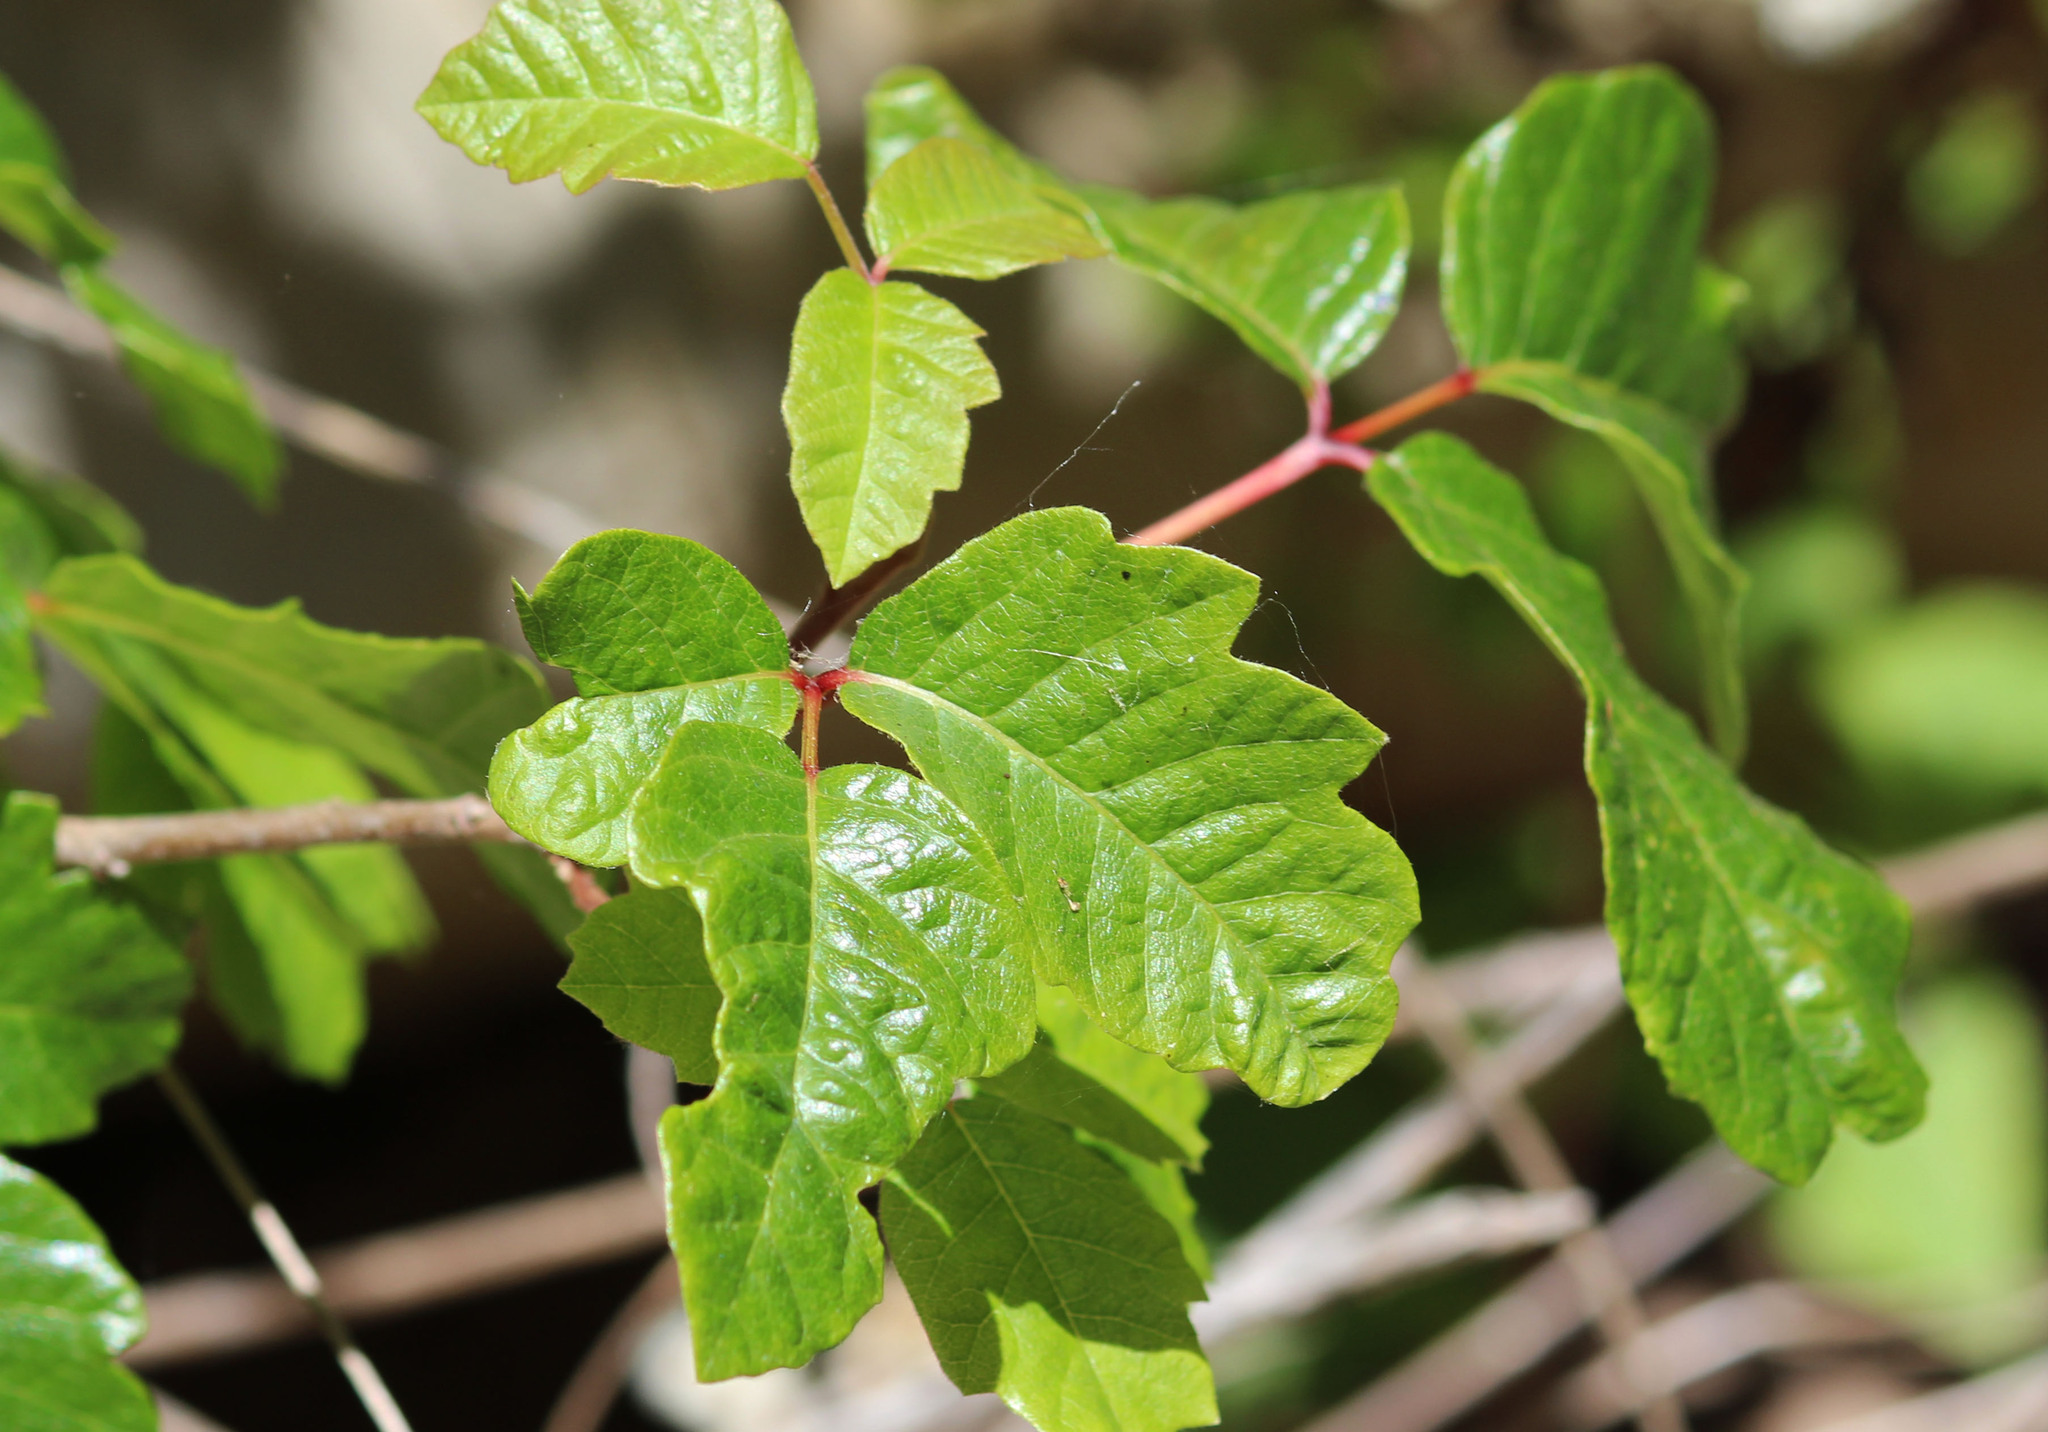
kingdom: Plantae
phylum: Tracheophyta
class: Magnoliopsida
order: Sapindales
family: Anacardiaceae
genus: Toxicodendron
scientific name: Toxicodendron diversilobum
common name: Pacific poison-oak
